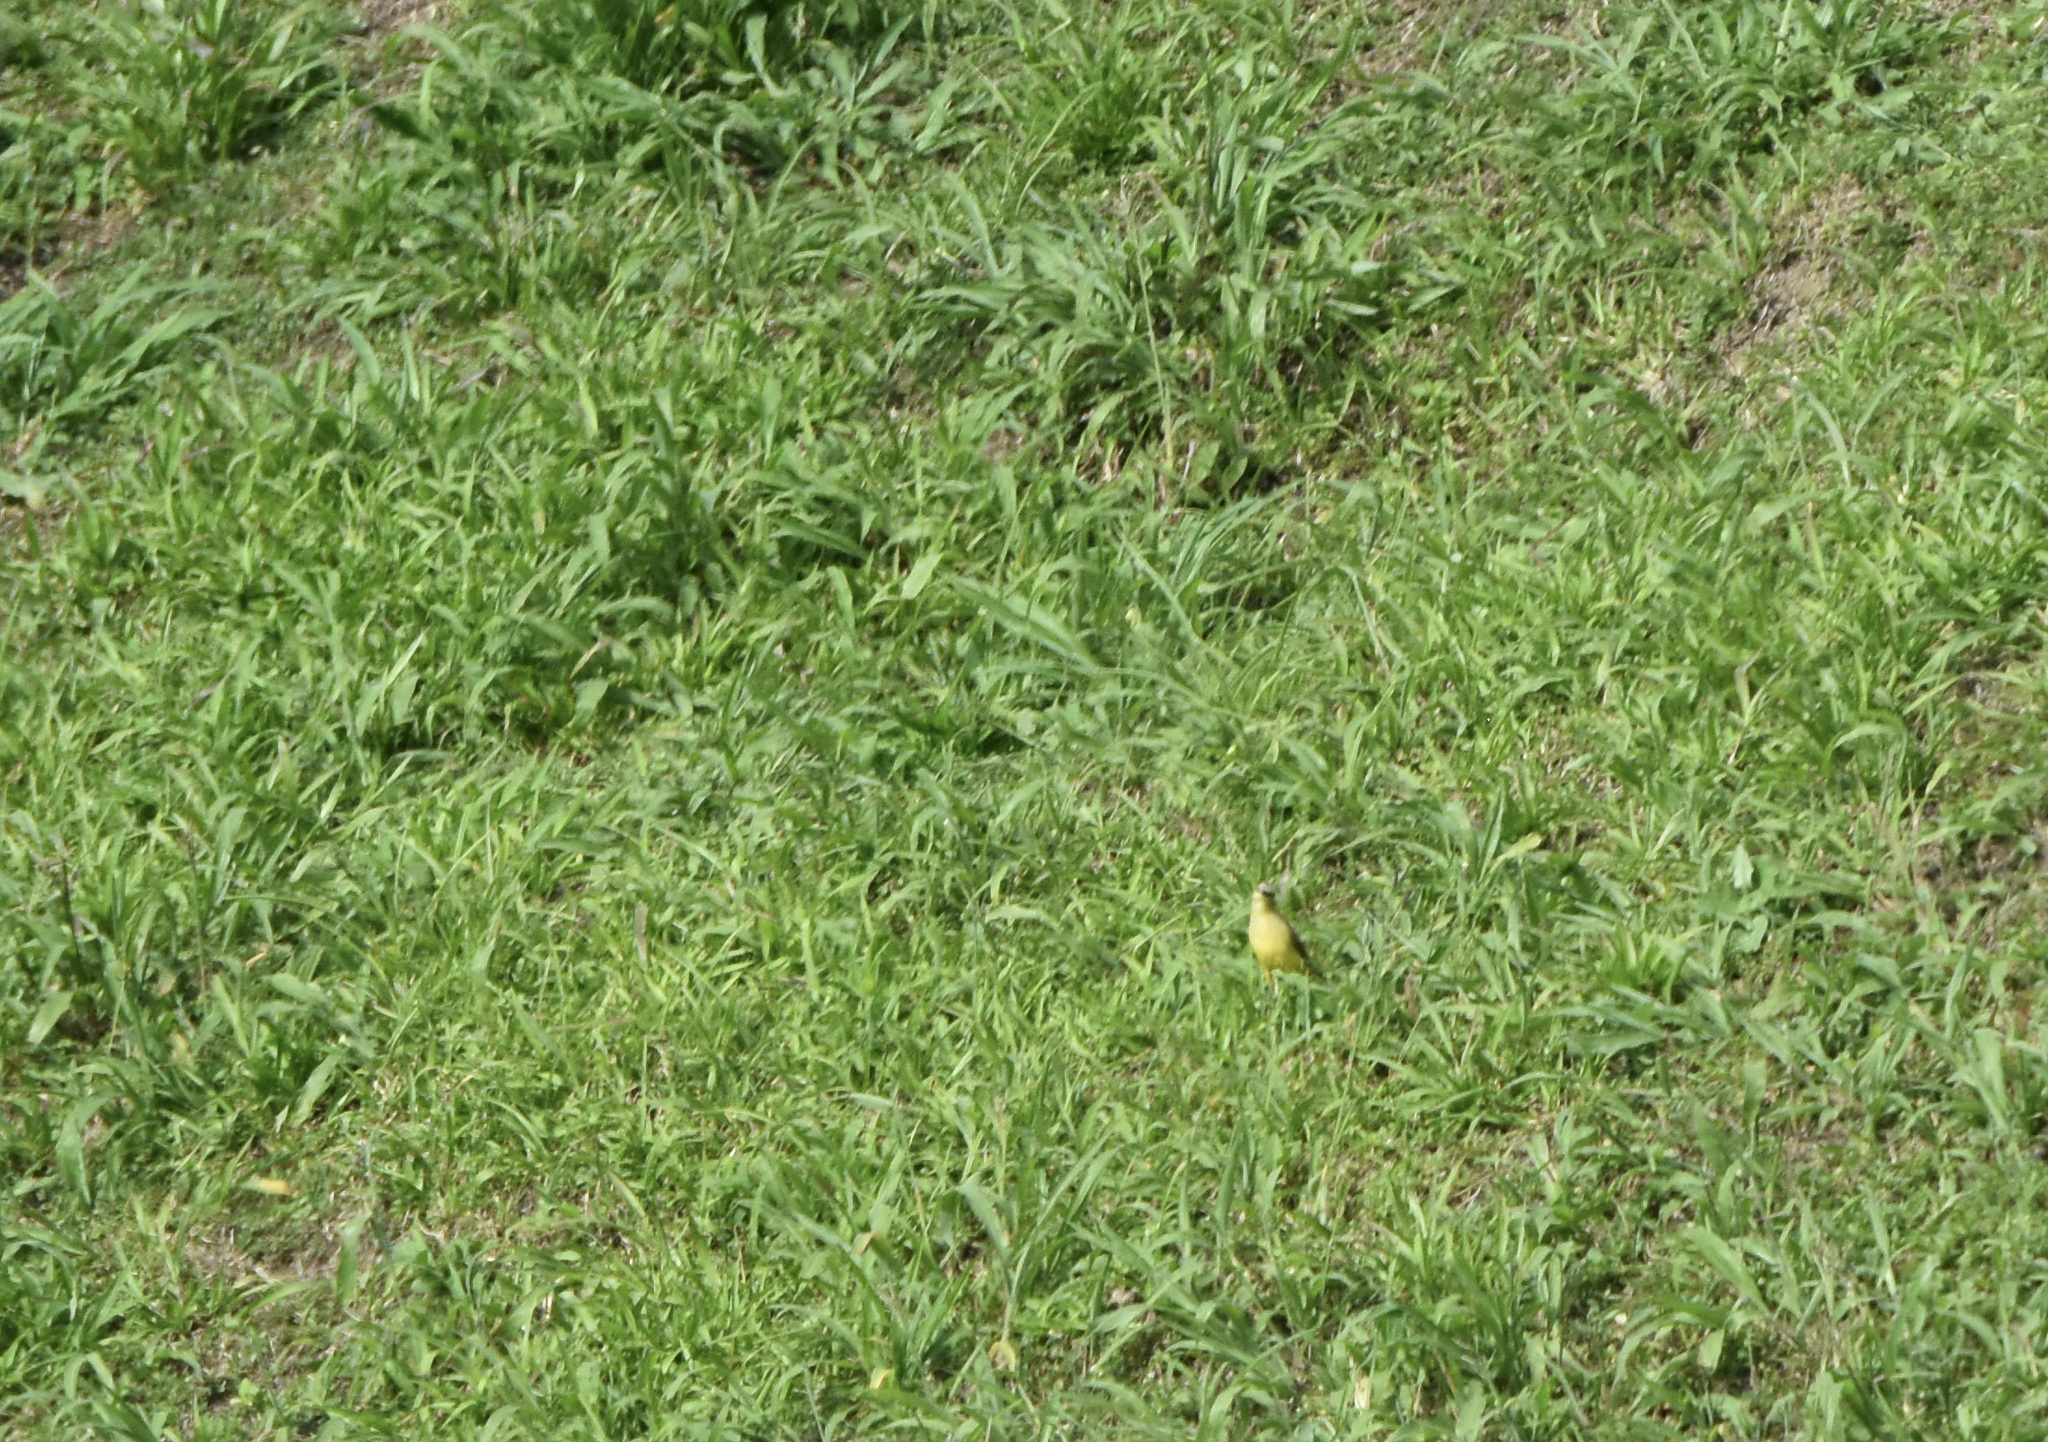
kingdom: Animalia
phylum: Chordata
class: Aves
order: Passeriformes
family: Tyrannidae
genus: Machetornis
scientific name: Machetornis rixosa
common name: Cattle tyrant
